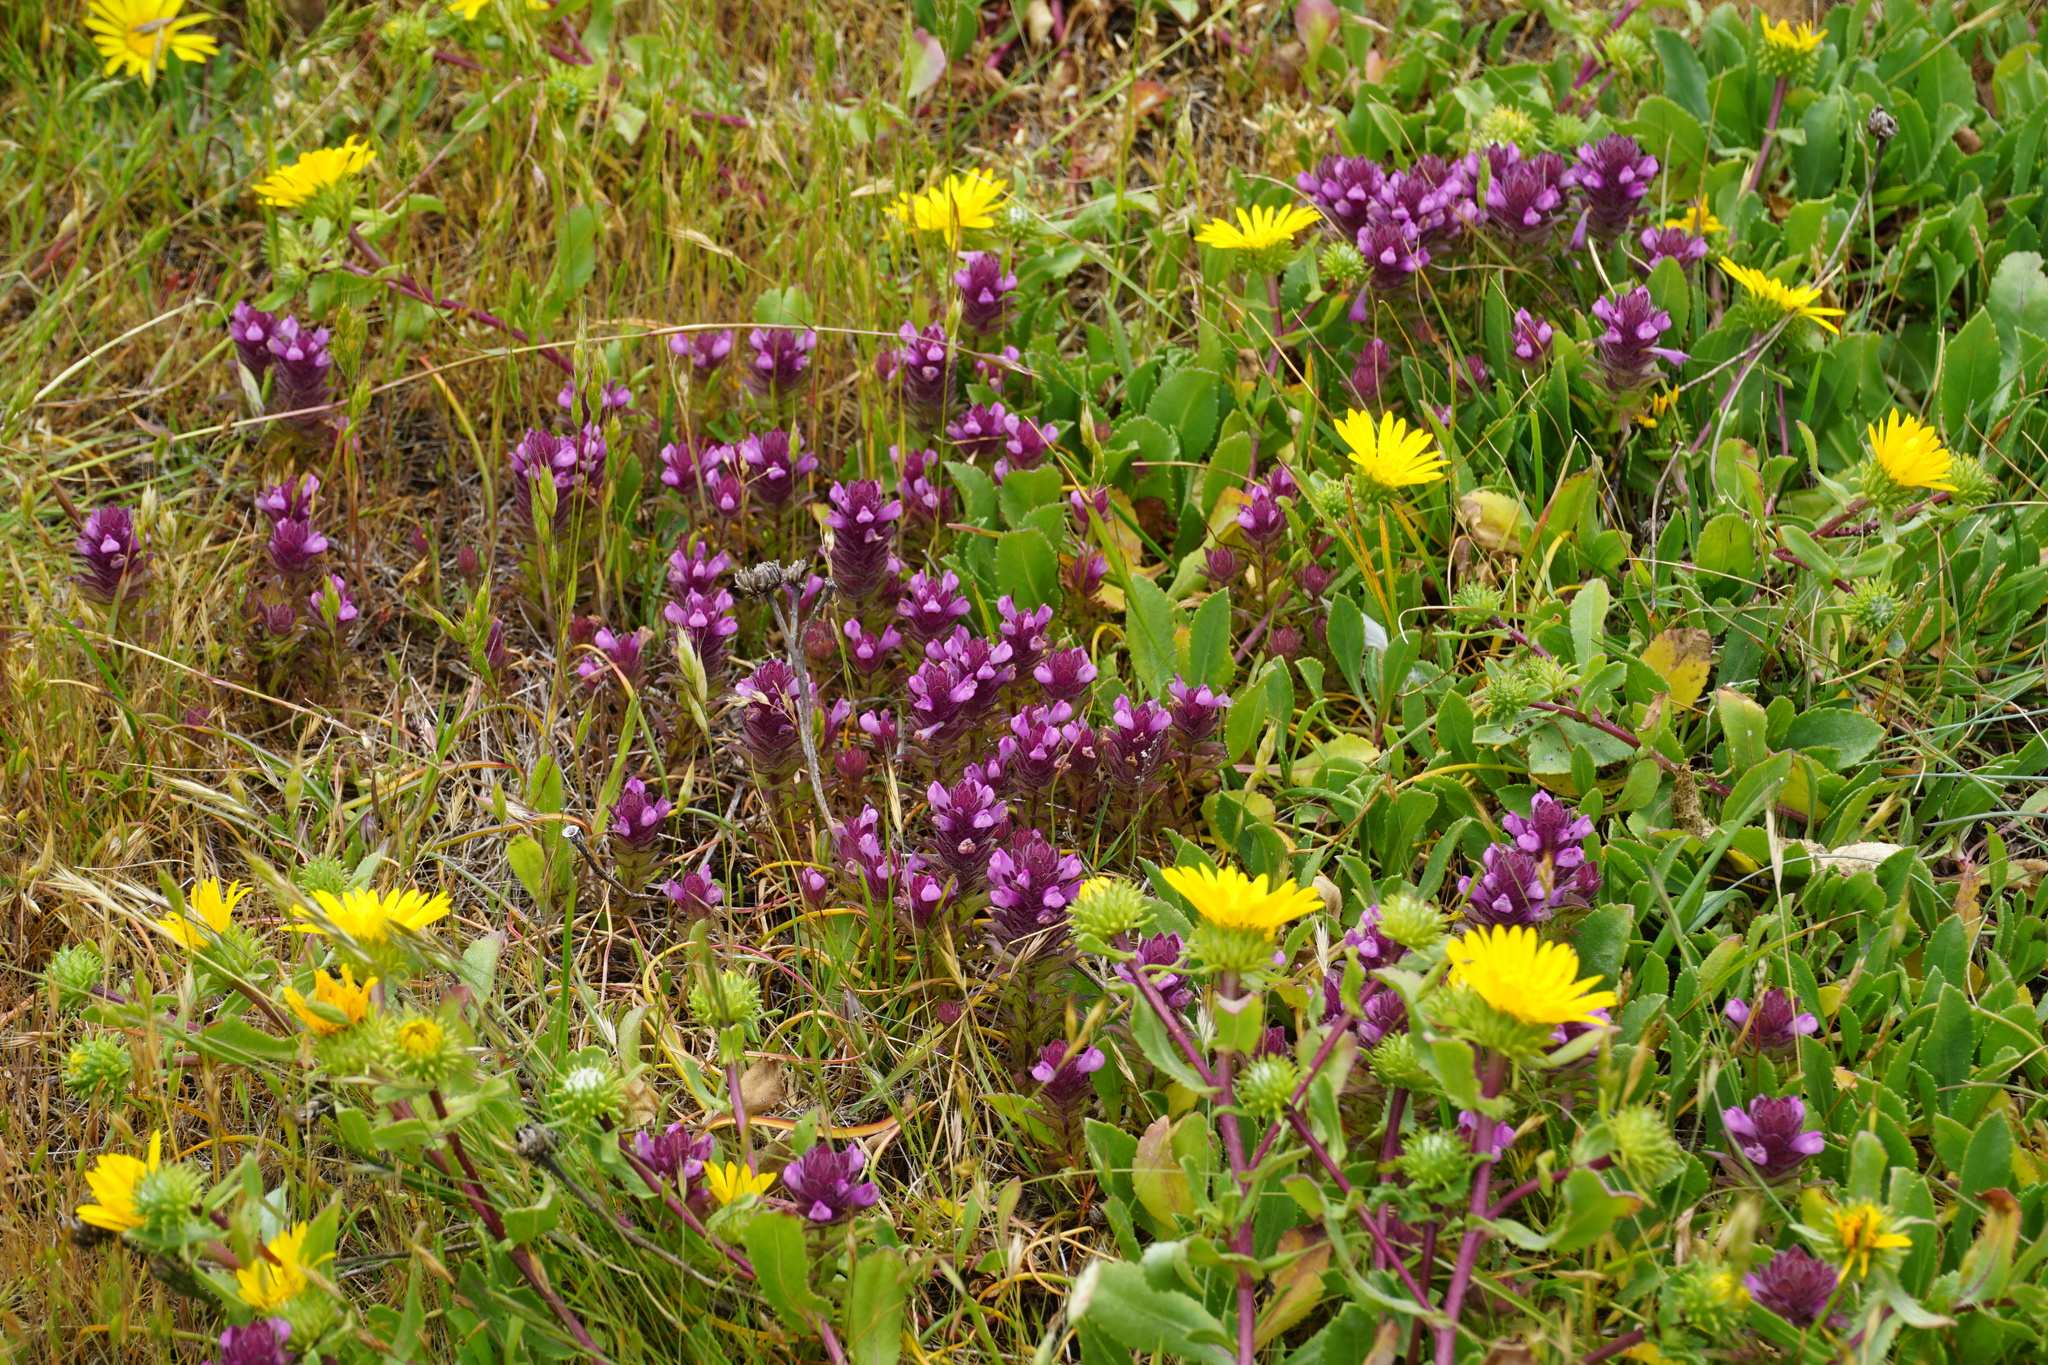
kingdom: Plantae
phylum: Tracheophyta
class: Magnoliopsida
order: Lamiales
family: Orobanchaceae
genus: Orthocarpus
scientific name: Orthocarpus bracteosus
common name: Rosy owl's-clover
